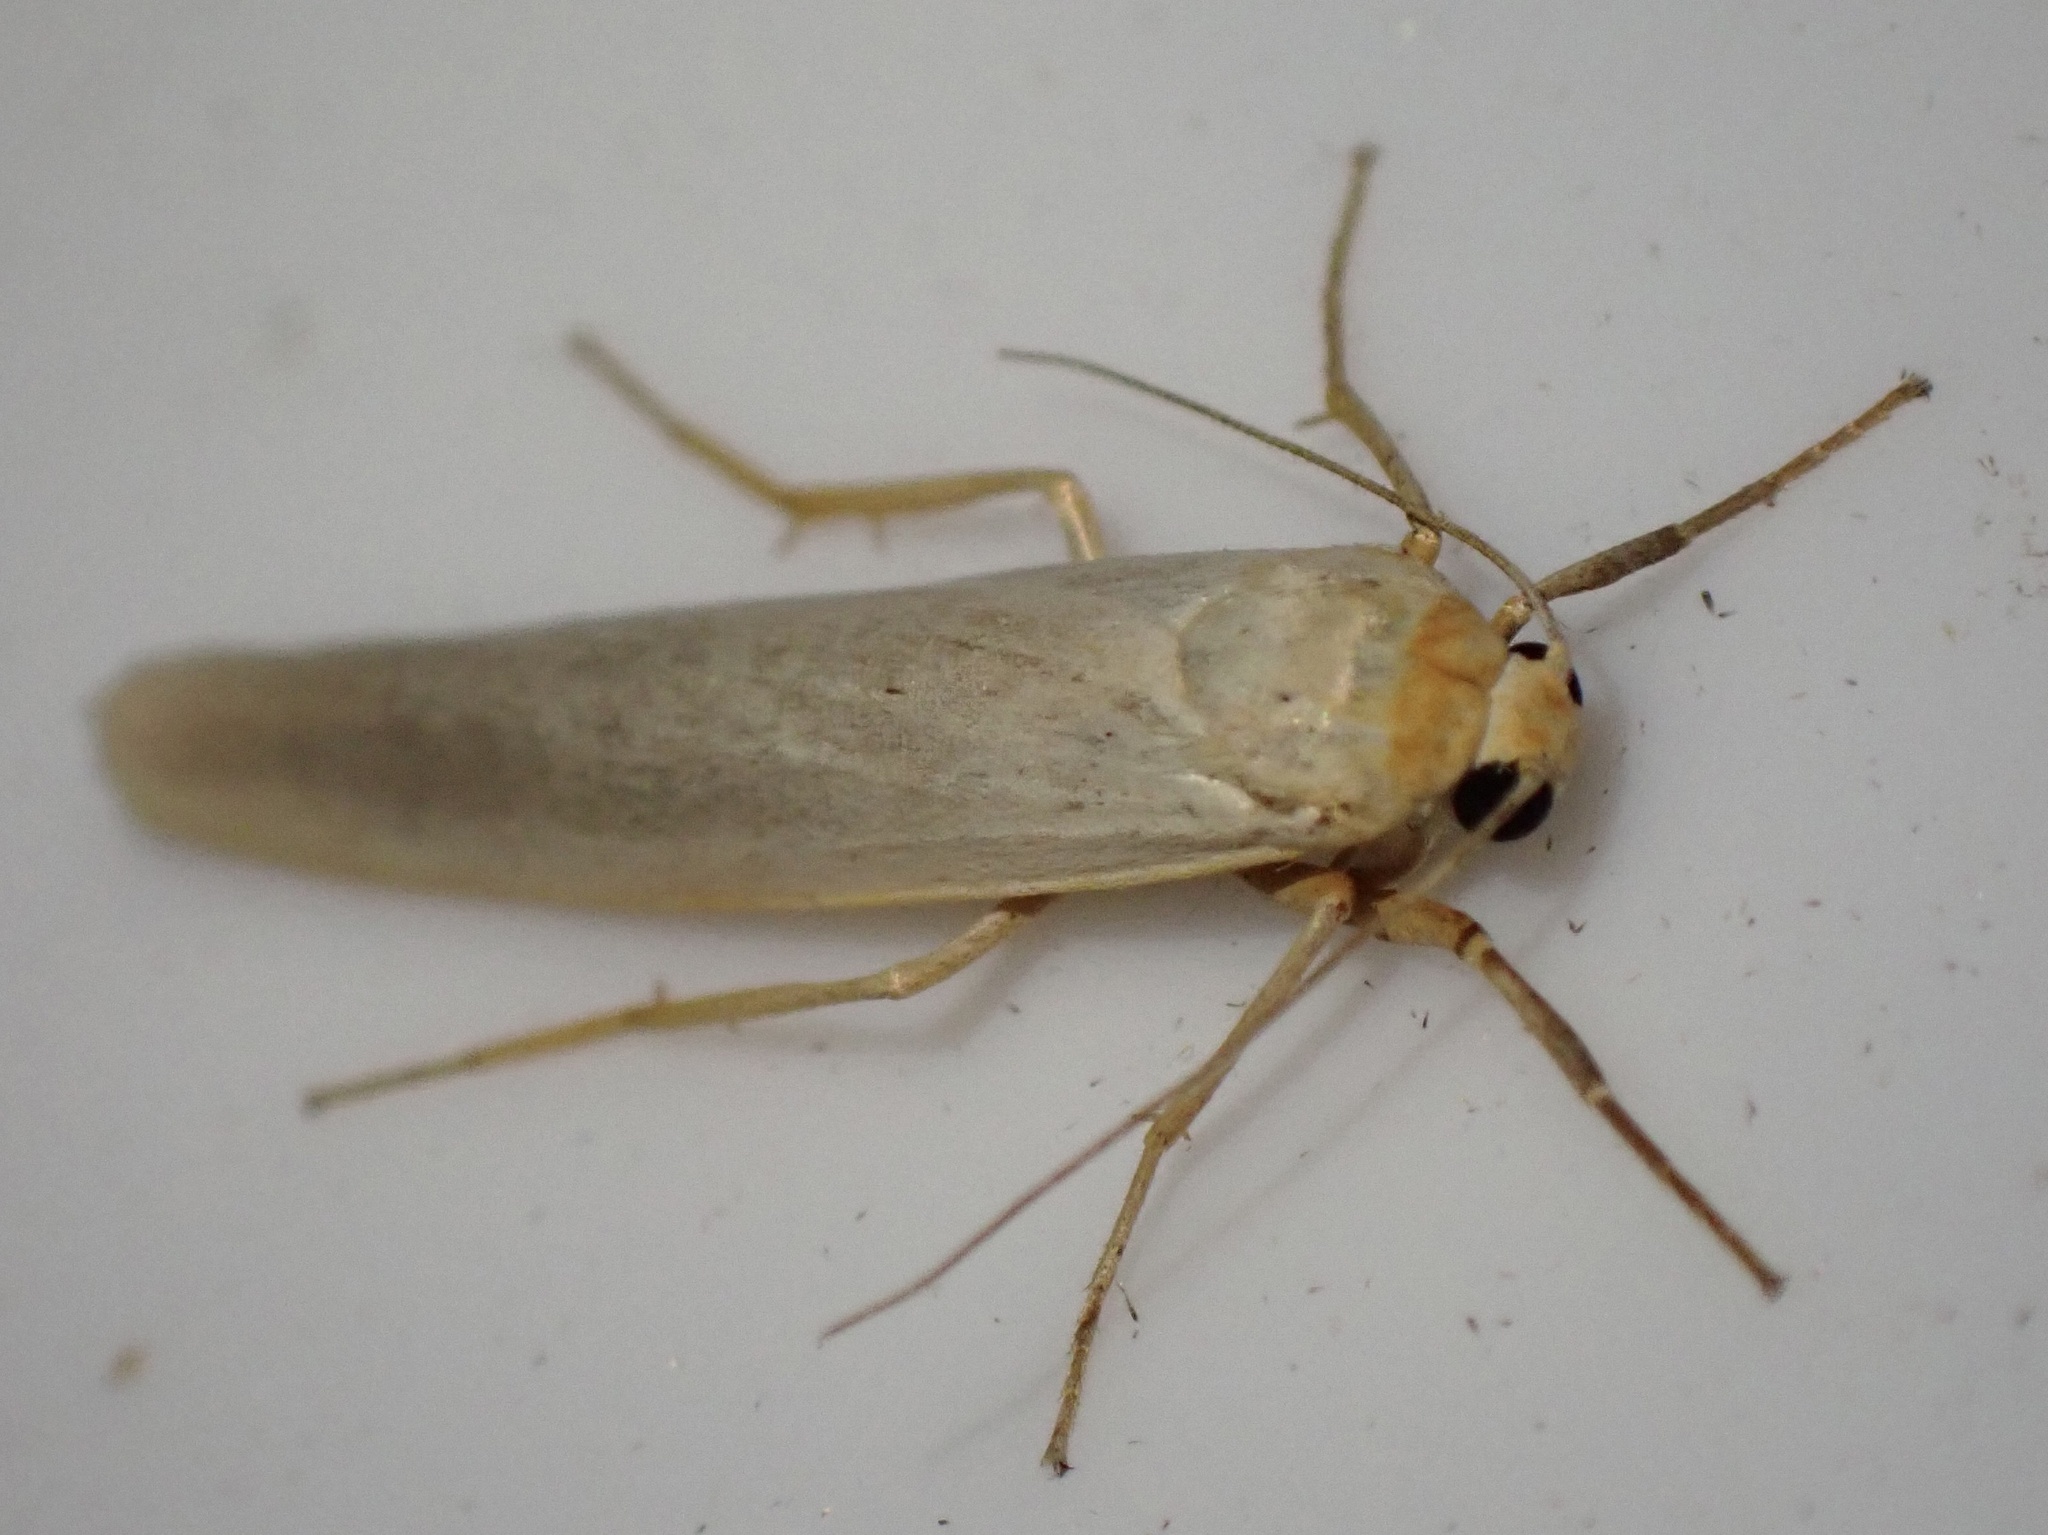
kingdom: Animalia
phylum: Arthropoda
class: Insecta
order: Lepidoptera
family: Erebidae
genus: Eilema
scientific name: Eilema caniola
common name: Hoary footman
